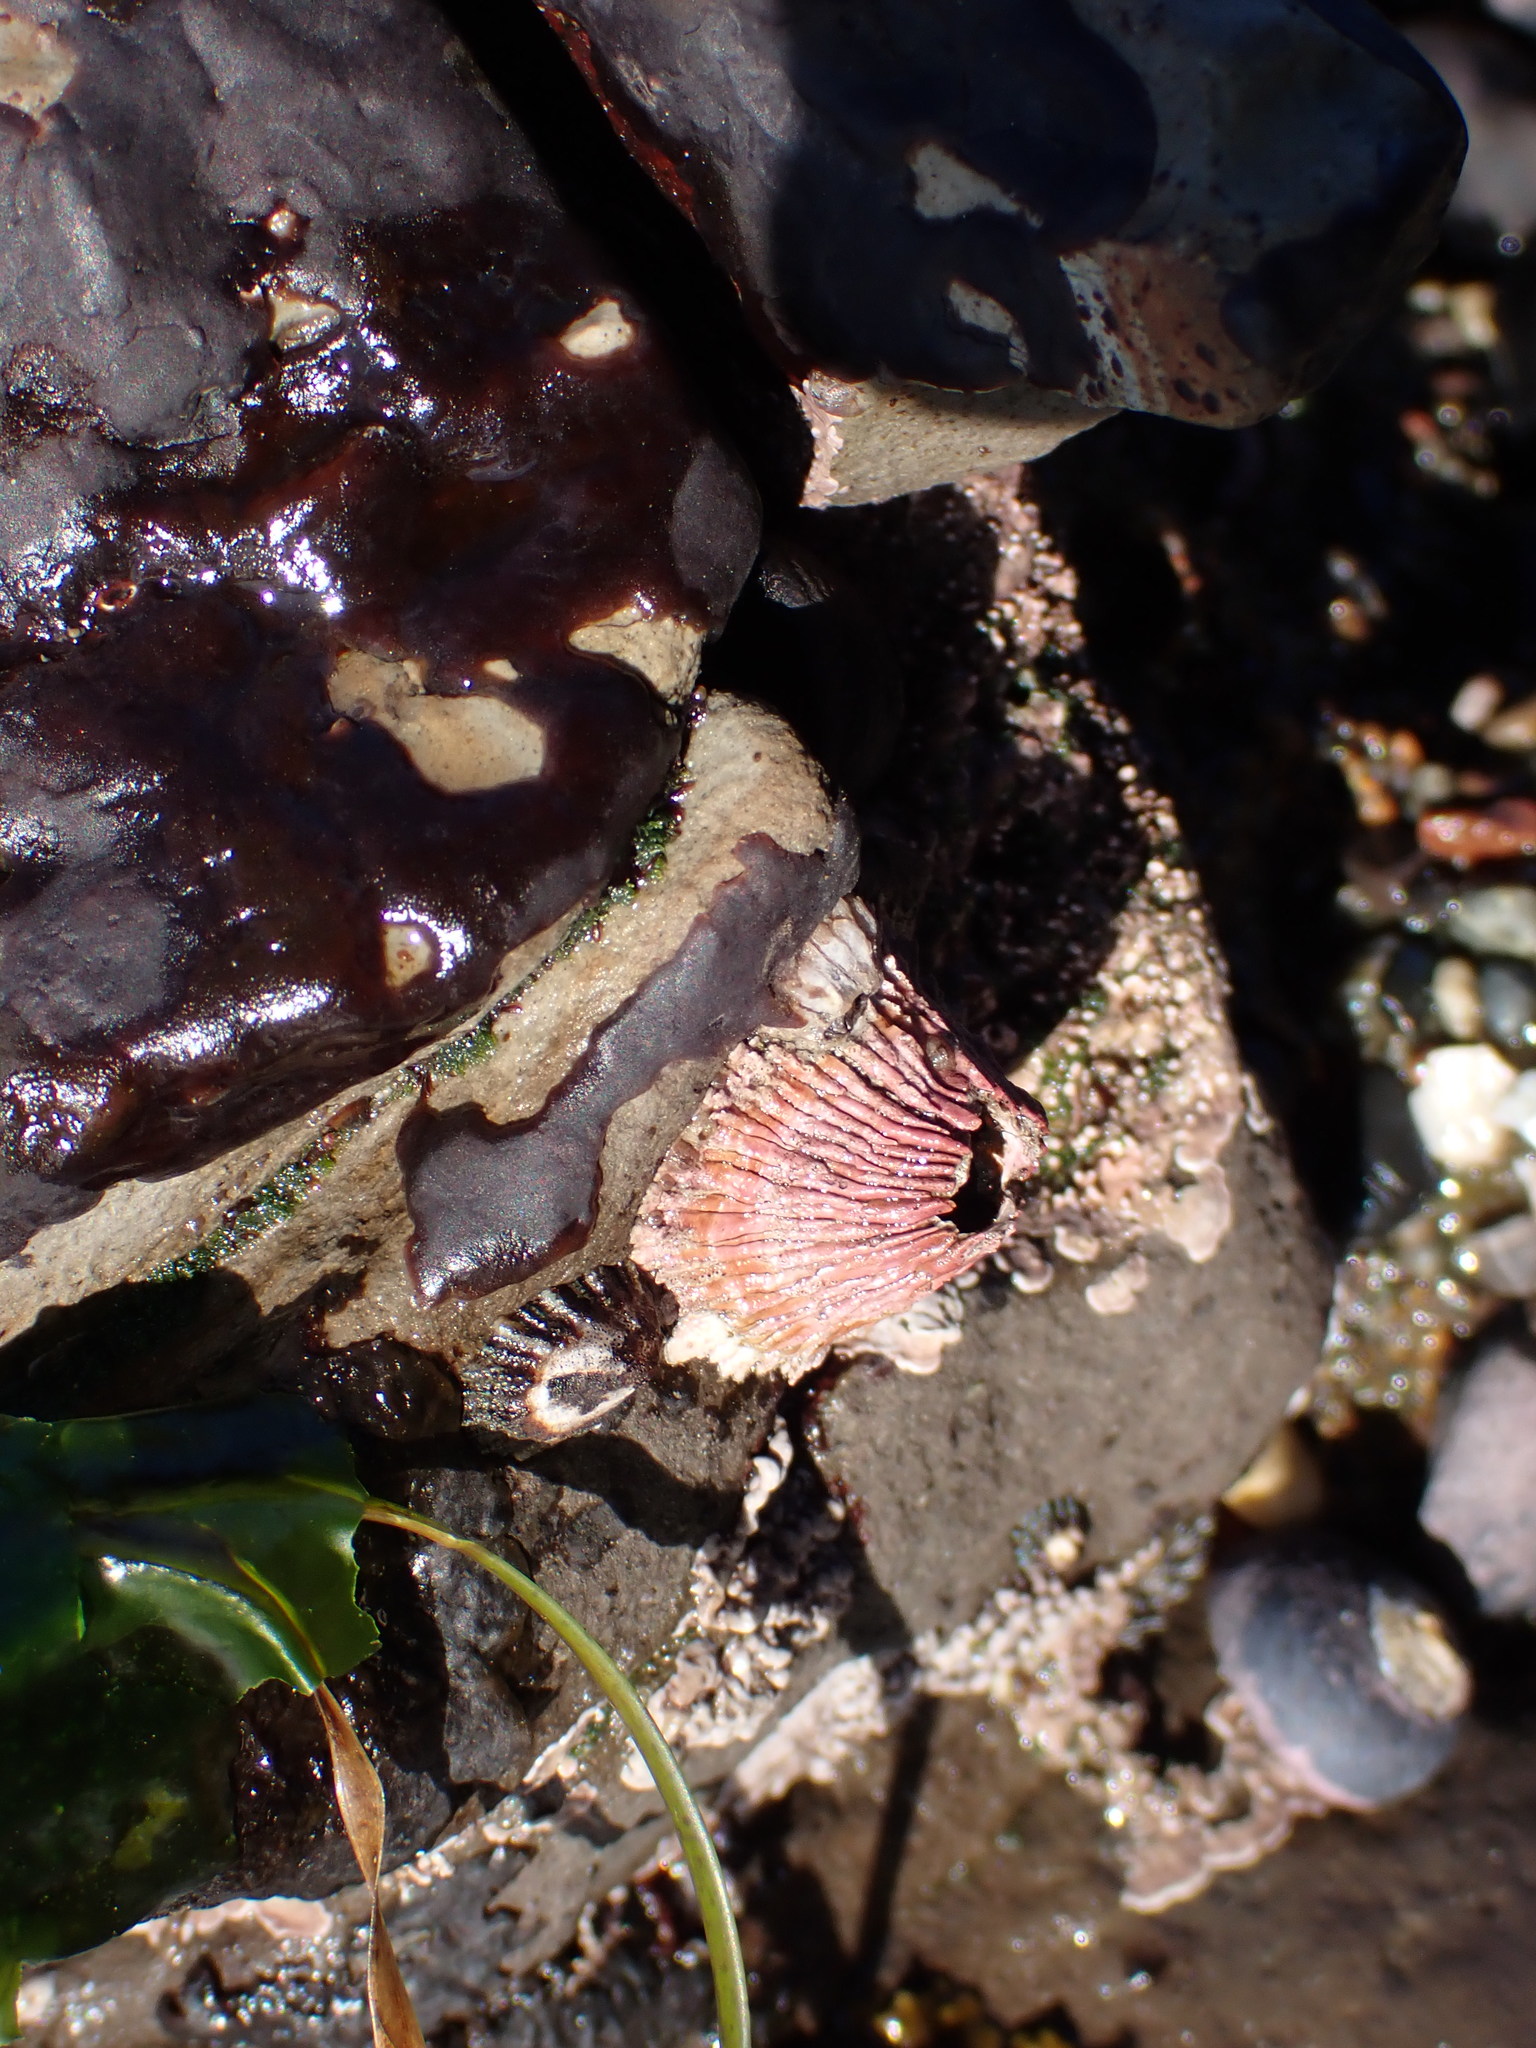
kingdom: Animalia
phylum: Arthropoda
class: Maxillopoda
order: Sessilia
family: Tetraclitidae
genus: Tetraclita
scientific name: Tetraclita rubescens
